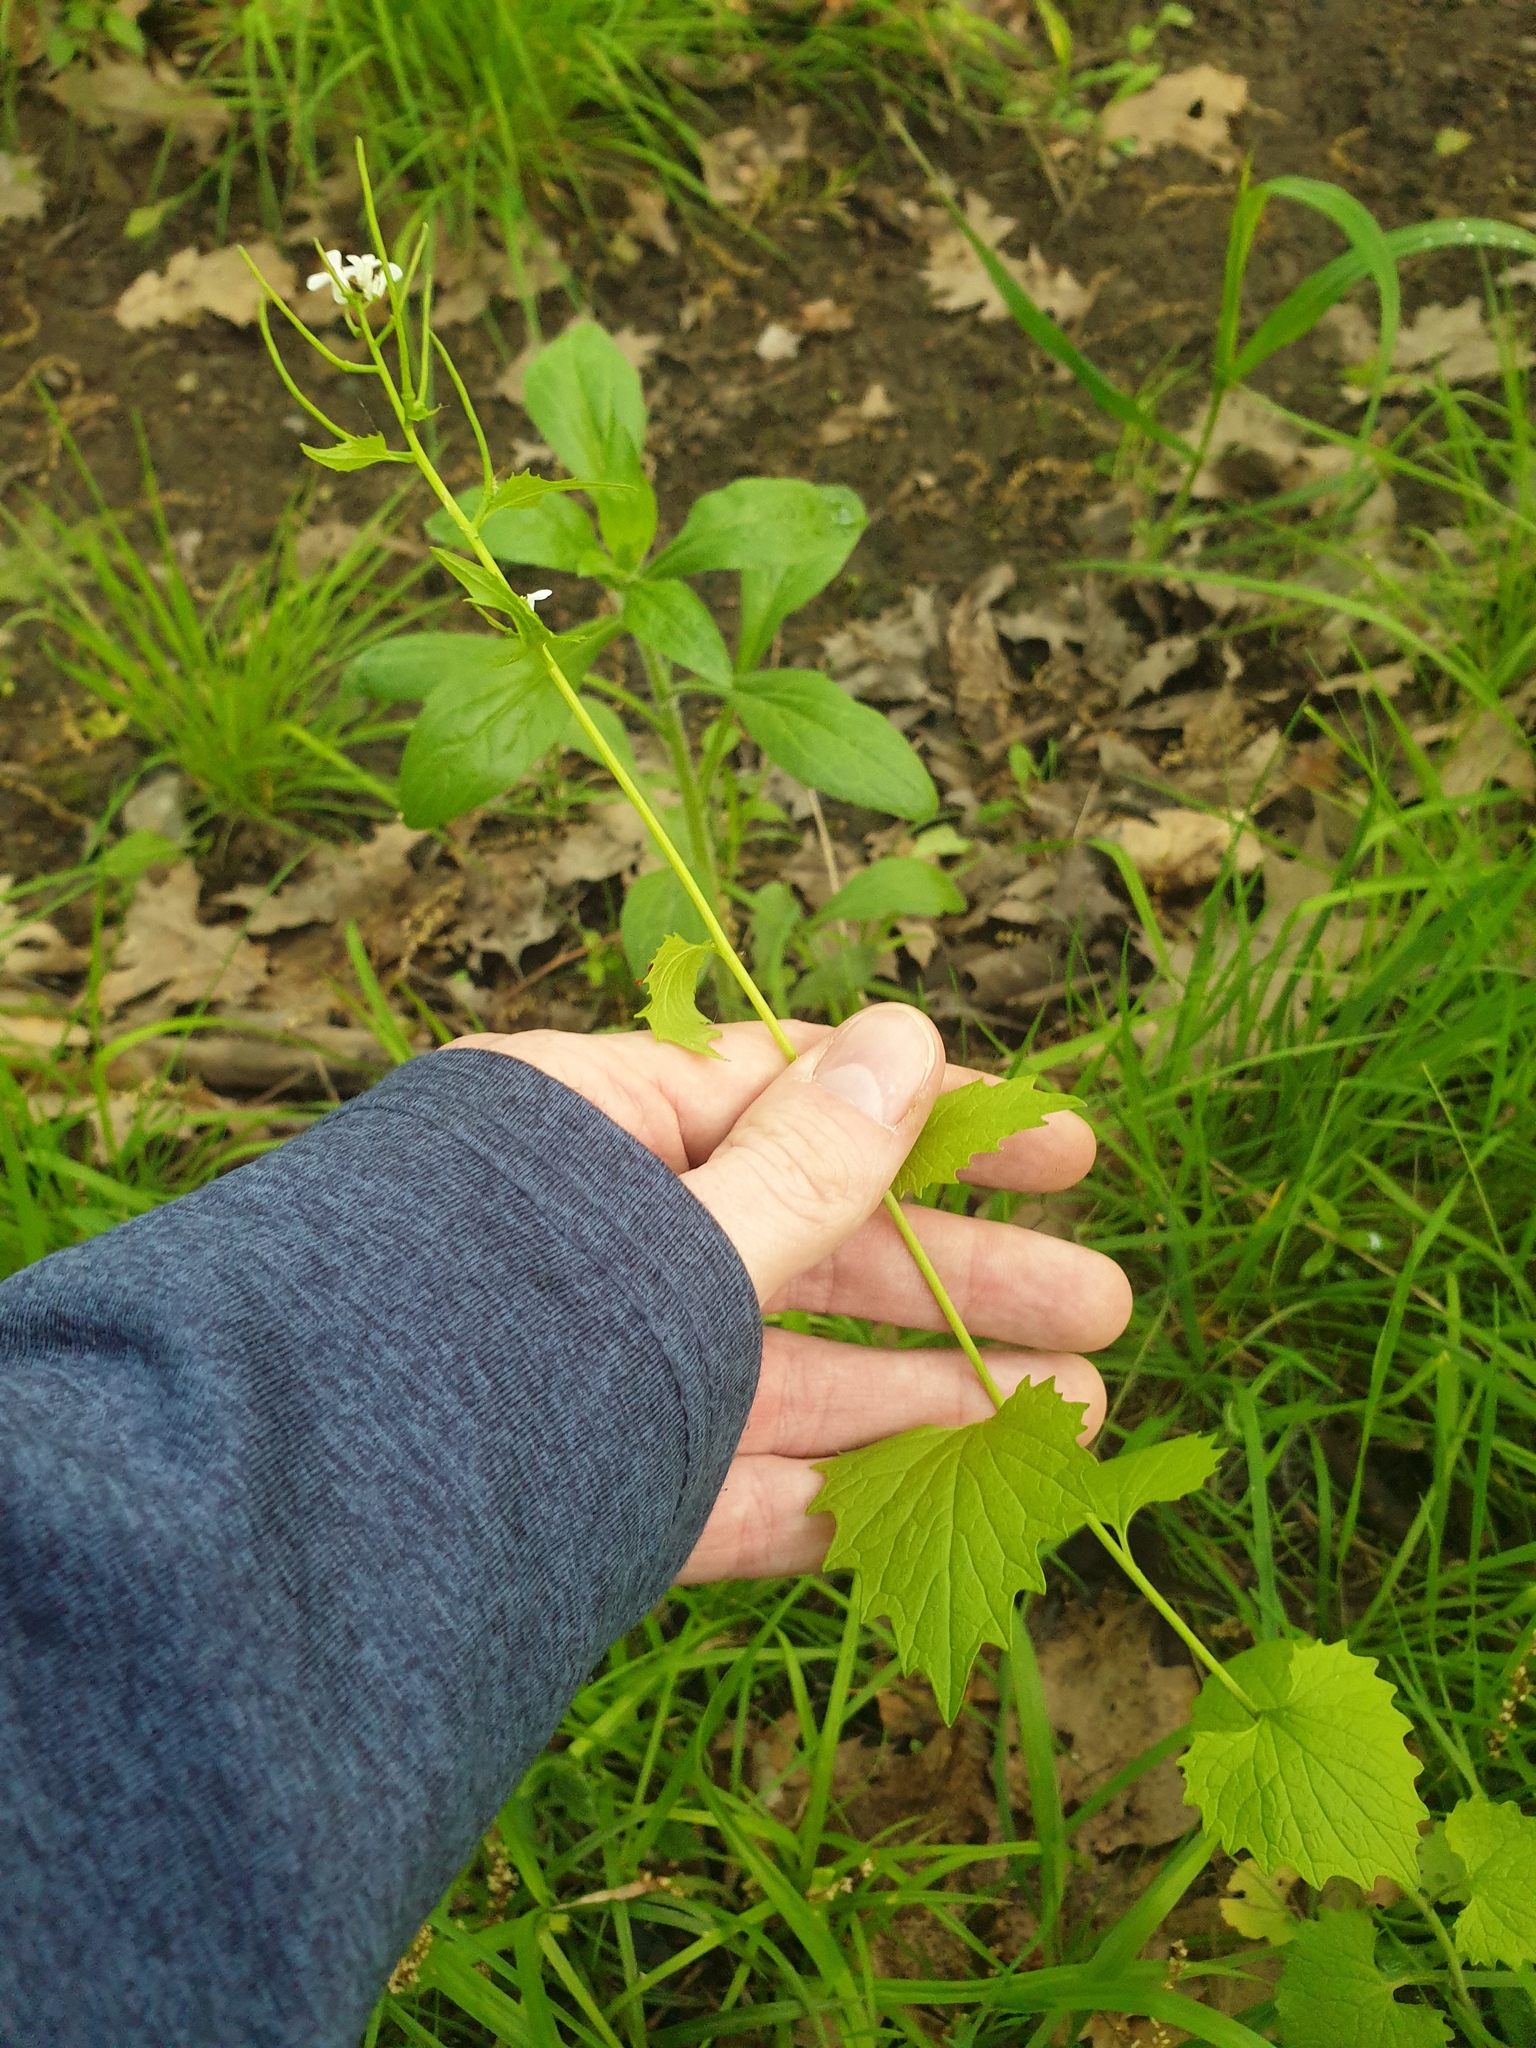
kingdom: Plantae
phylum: Tracheophyta
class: Magnoliopsida
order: Brassicales
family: Brassicaceae
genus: Alliaria
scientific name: Alliaria petiolata
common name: Garlic mustard
